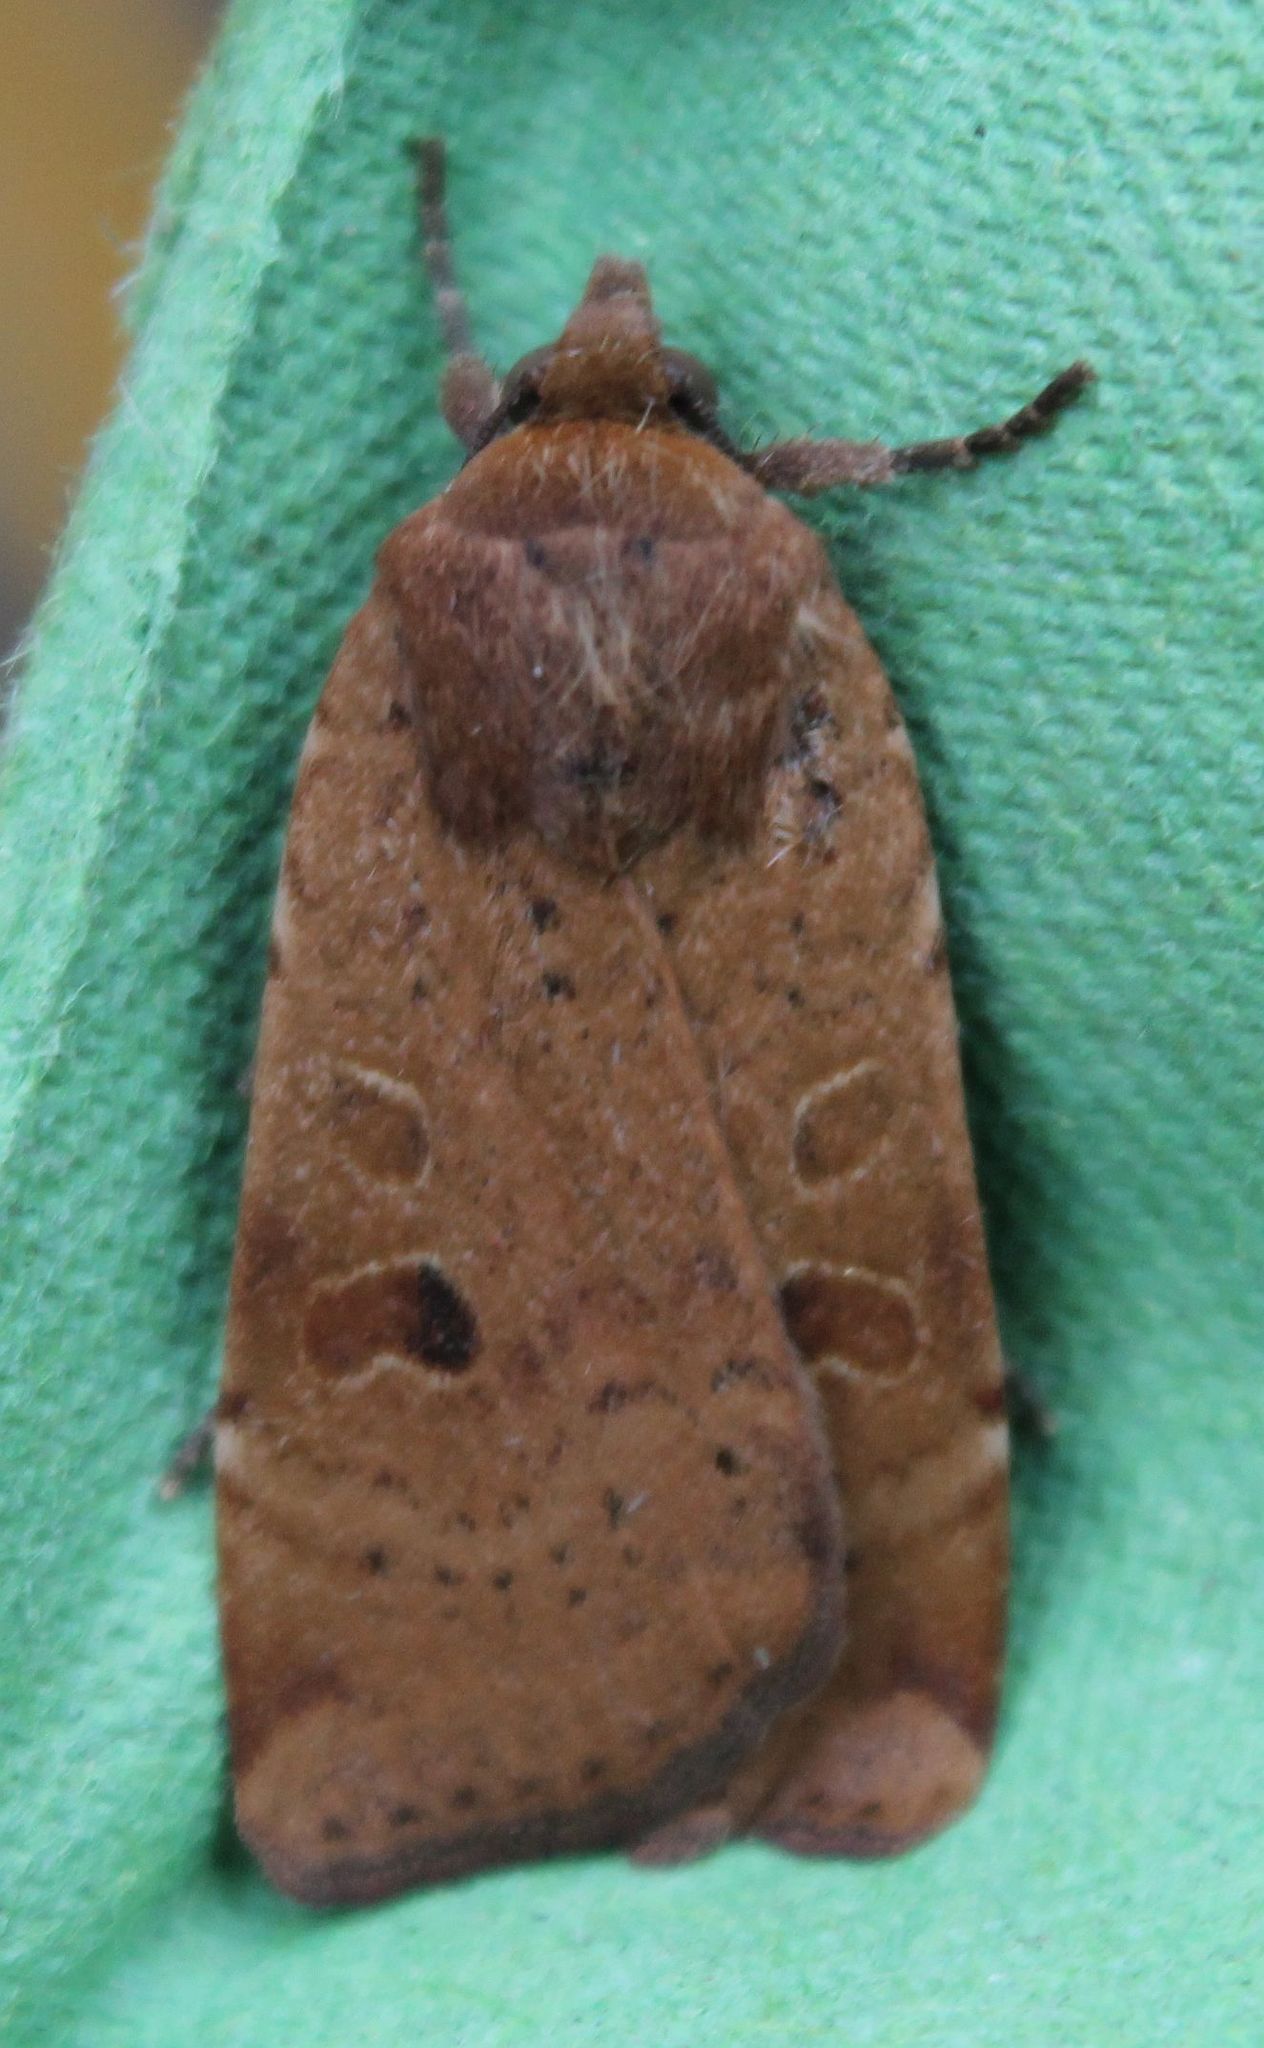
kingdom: Animalia
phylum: Arthropoda
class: Insecta
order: Lepidoptera
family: Noctuidae
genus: Noctua
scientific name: Noctua comes
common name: Lesser yellow underwing
